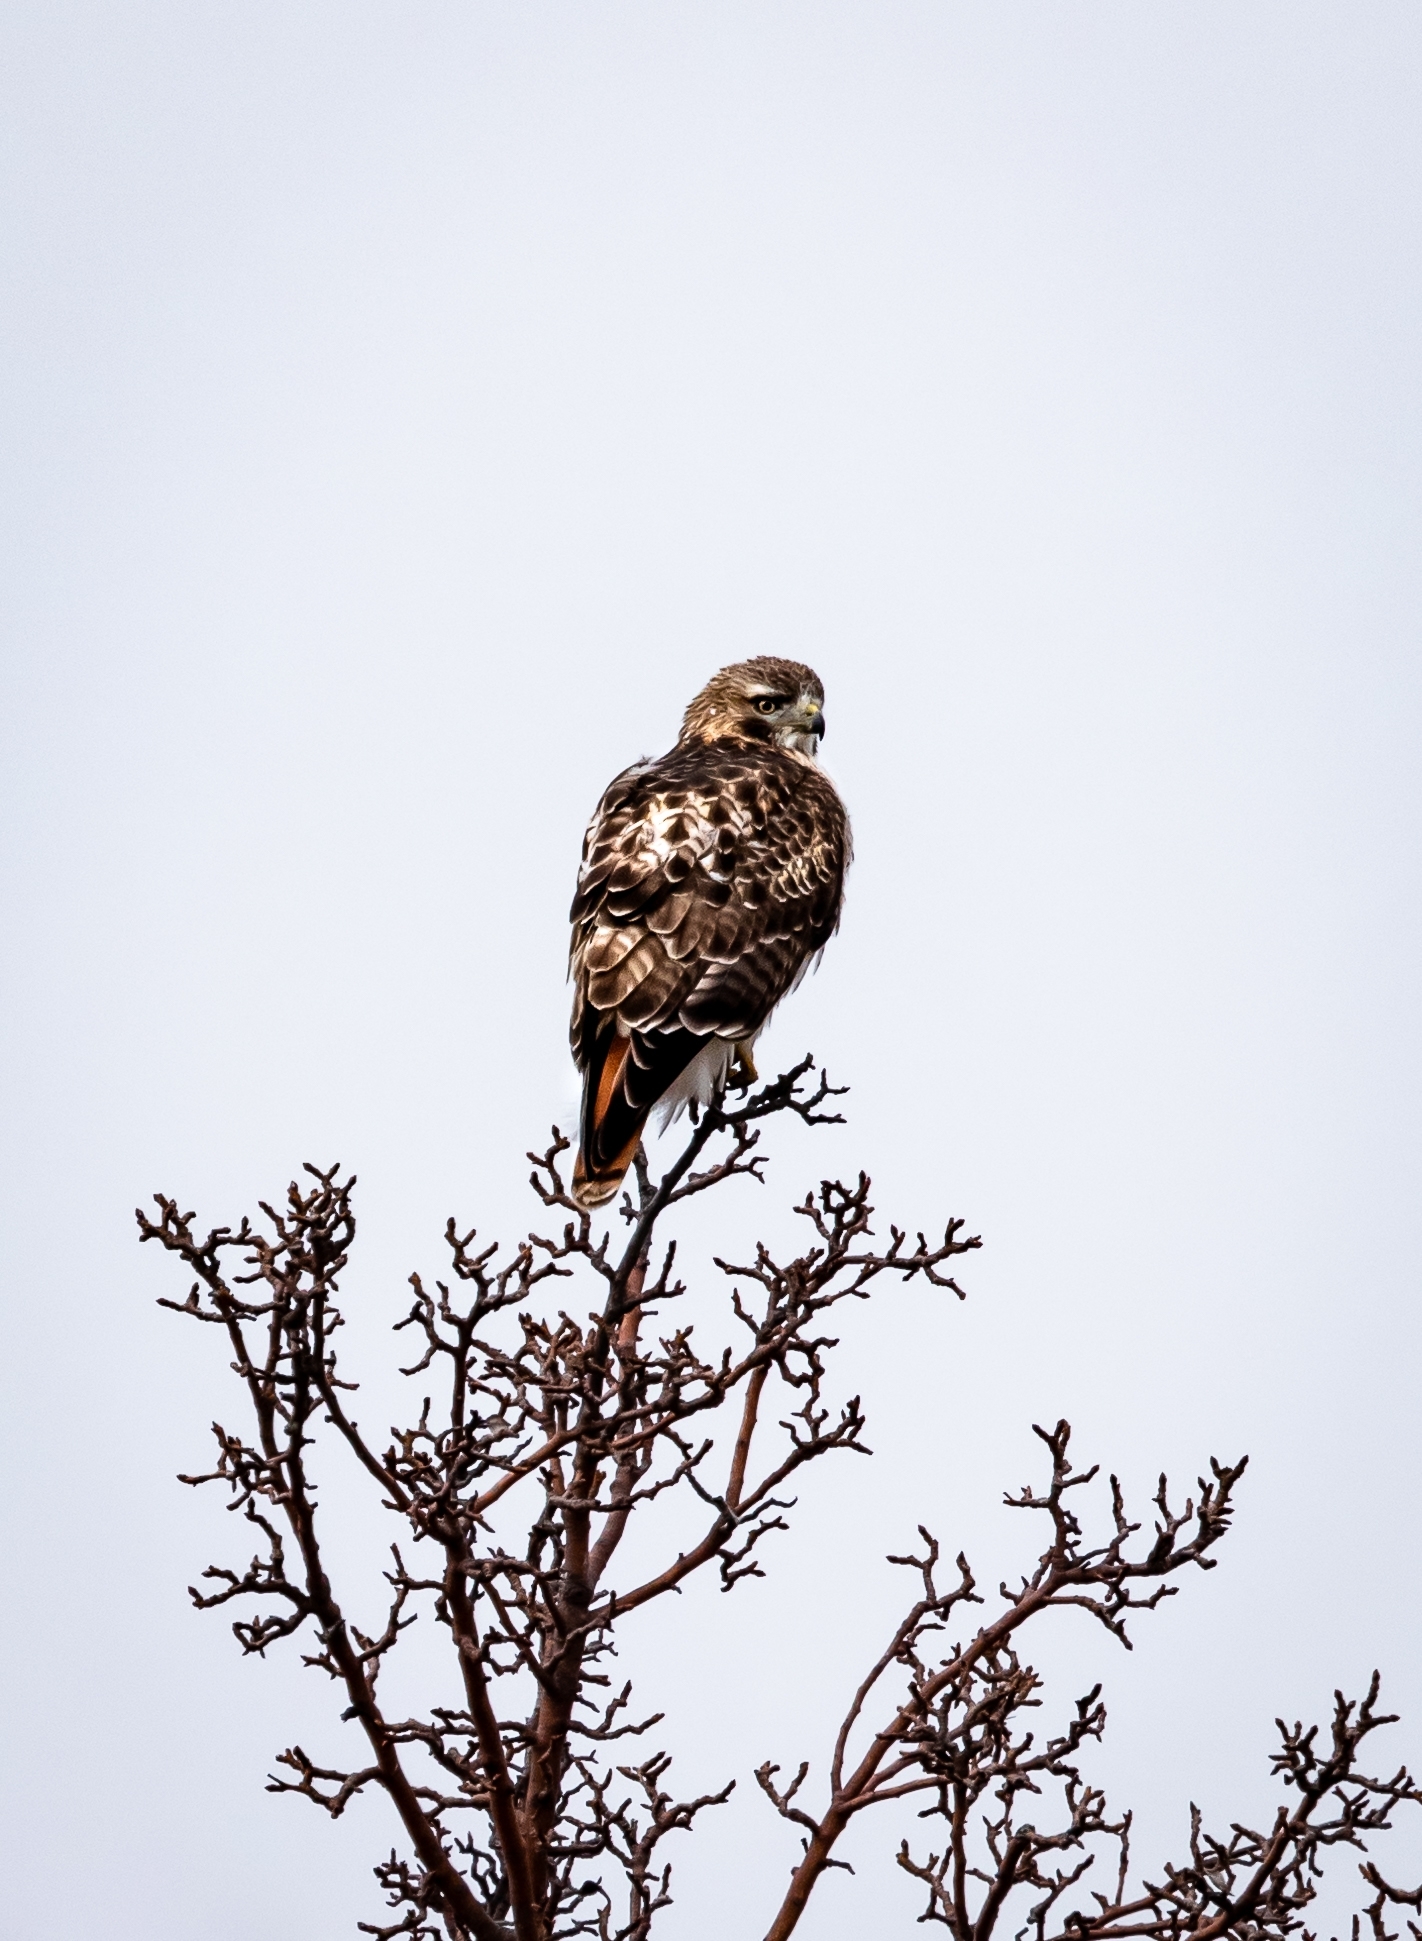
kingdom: Animalia
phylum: Chordata
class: Aves
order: Accipitriformes
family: Accipitridae
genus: Buteo
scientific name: Buteo jamaicensis
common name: Red-tailed hawk
